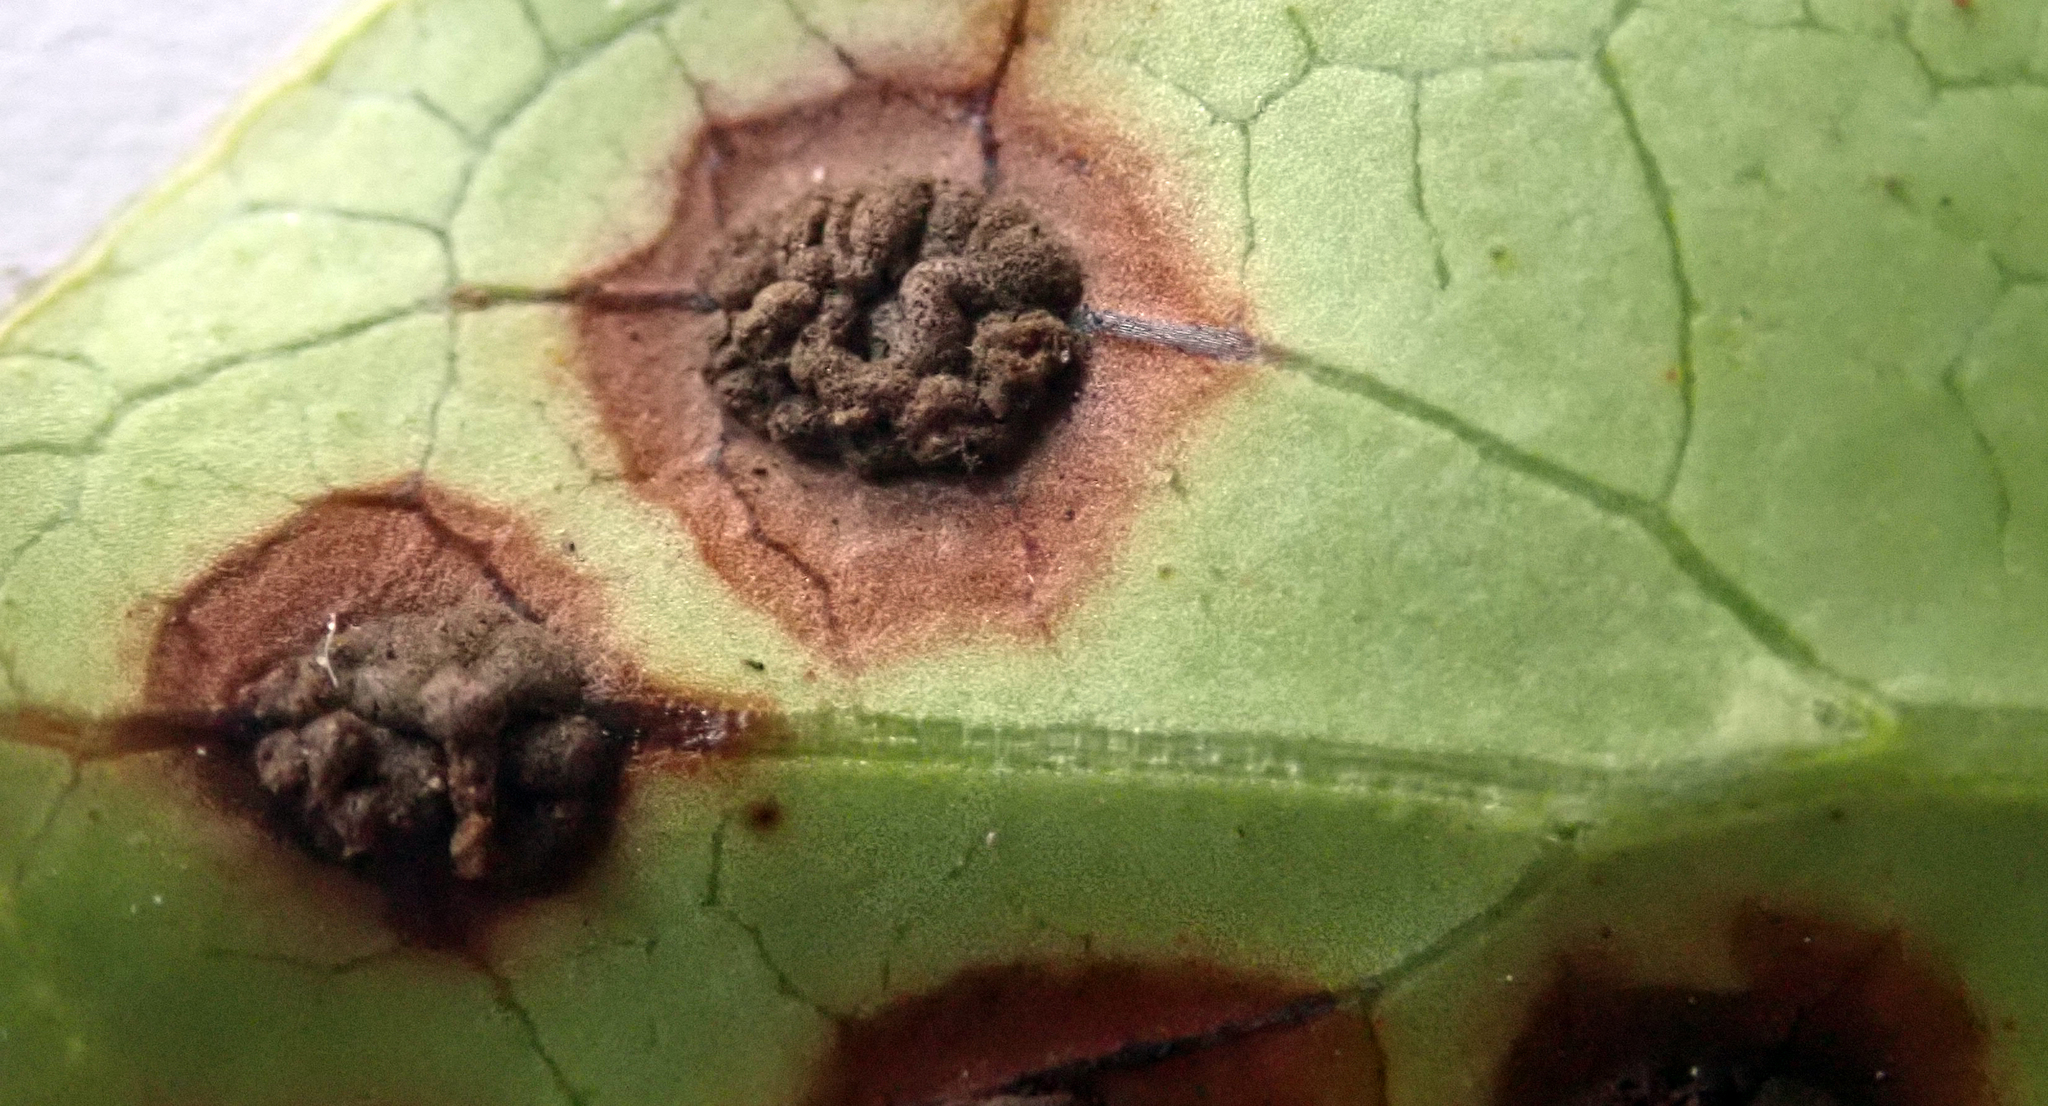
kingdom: Fungi
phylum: Basidiomycota
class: Pucciniomycetes
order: Pucciniales
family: Pucciniaceae
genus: Puccinia
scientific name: Puccinia coprosmae
